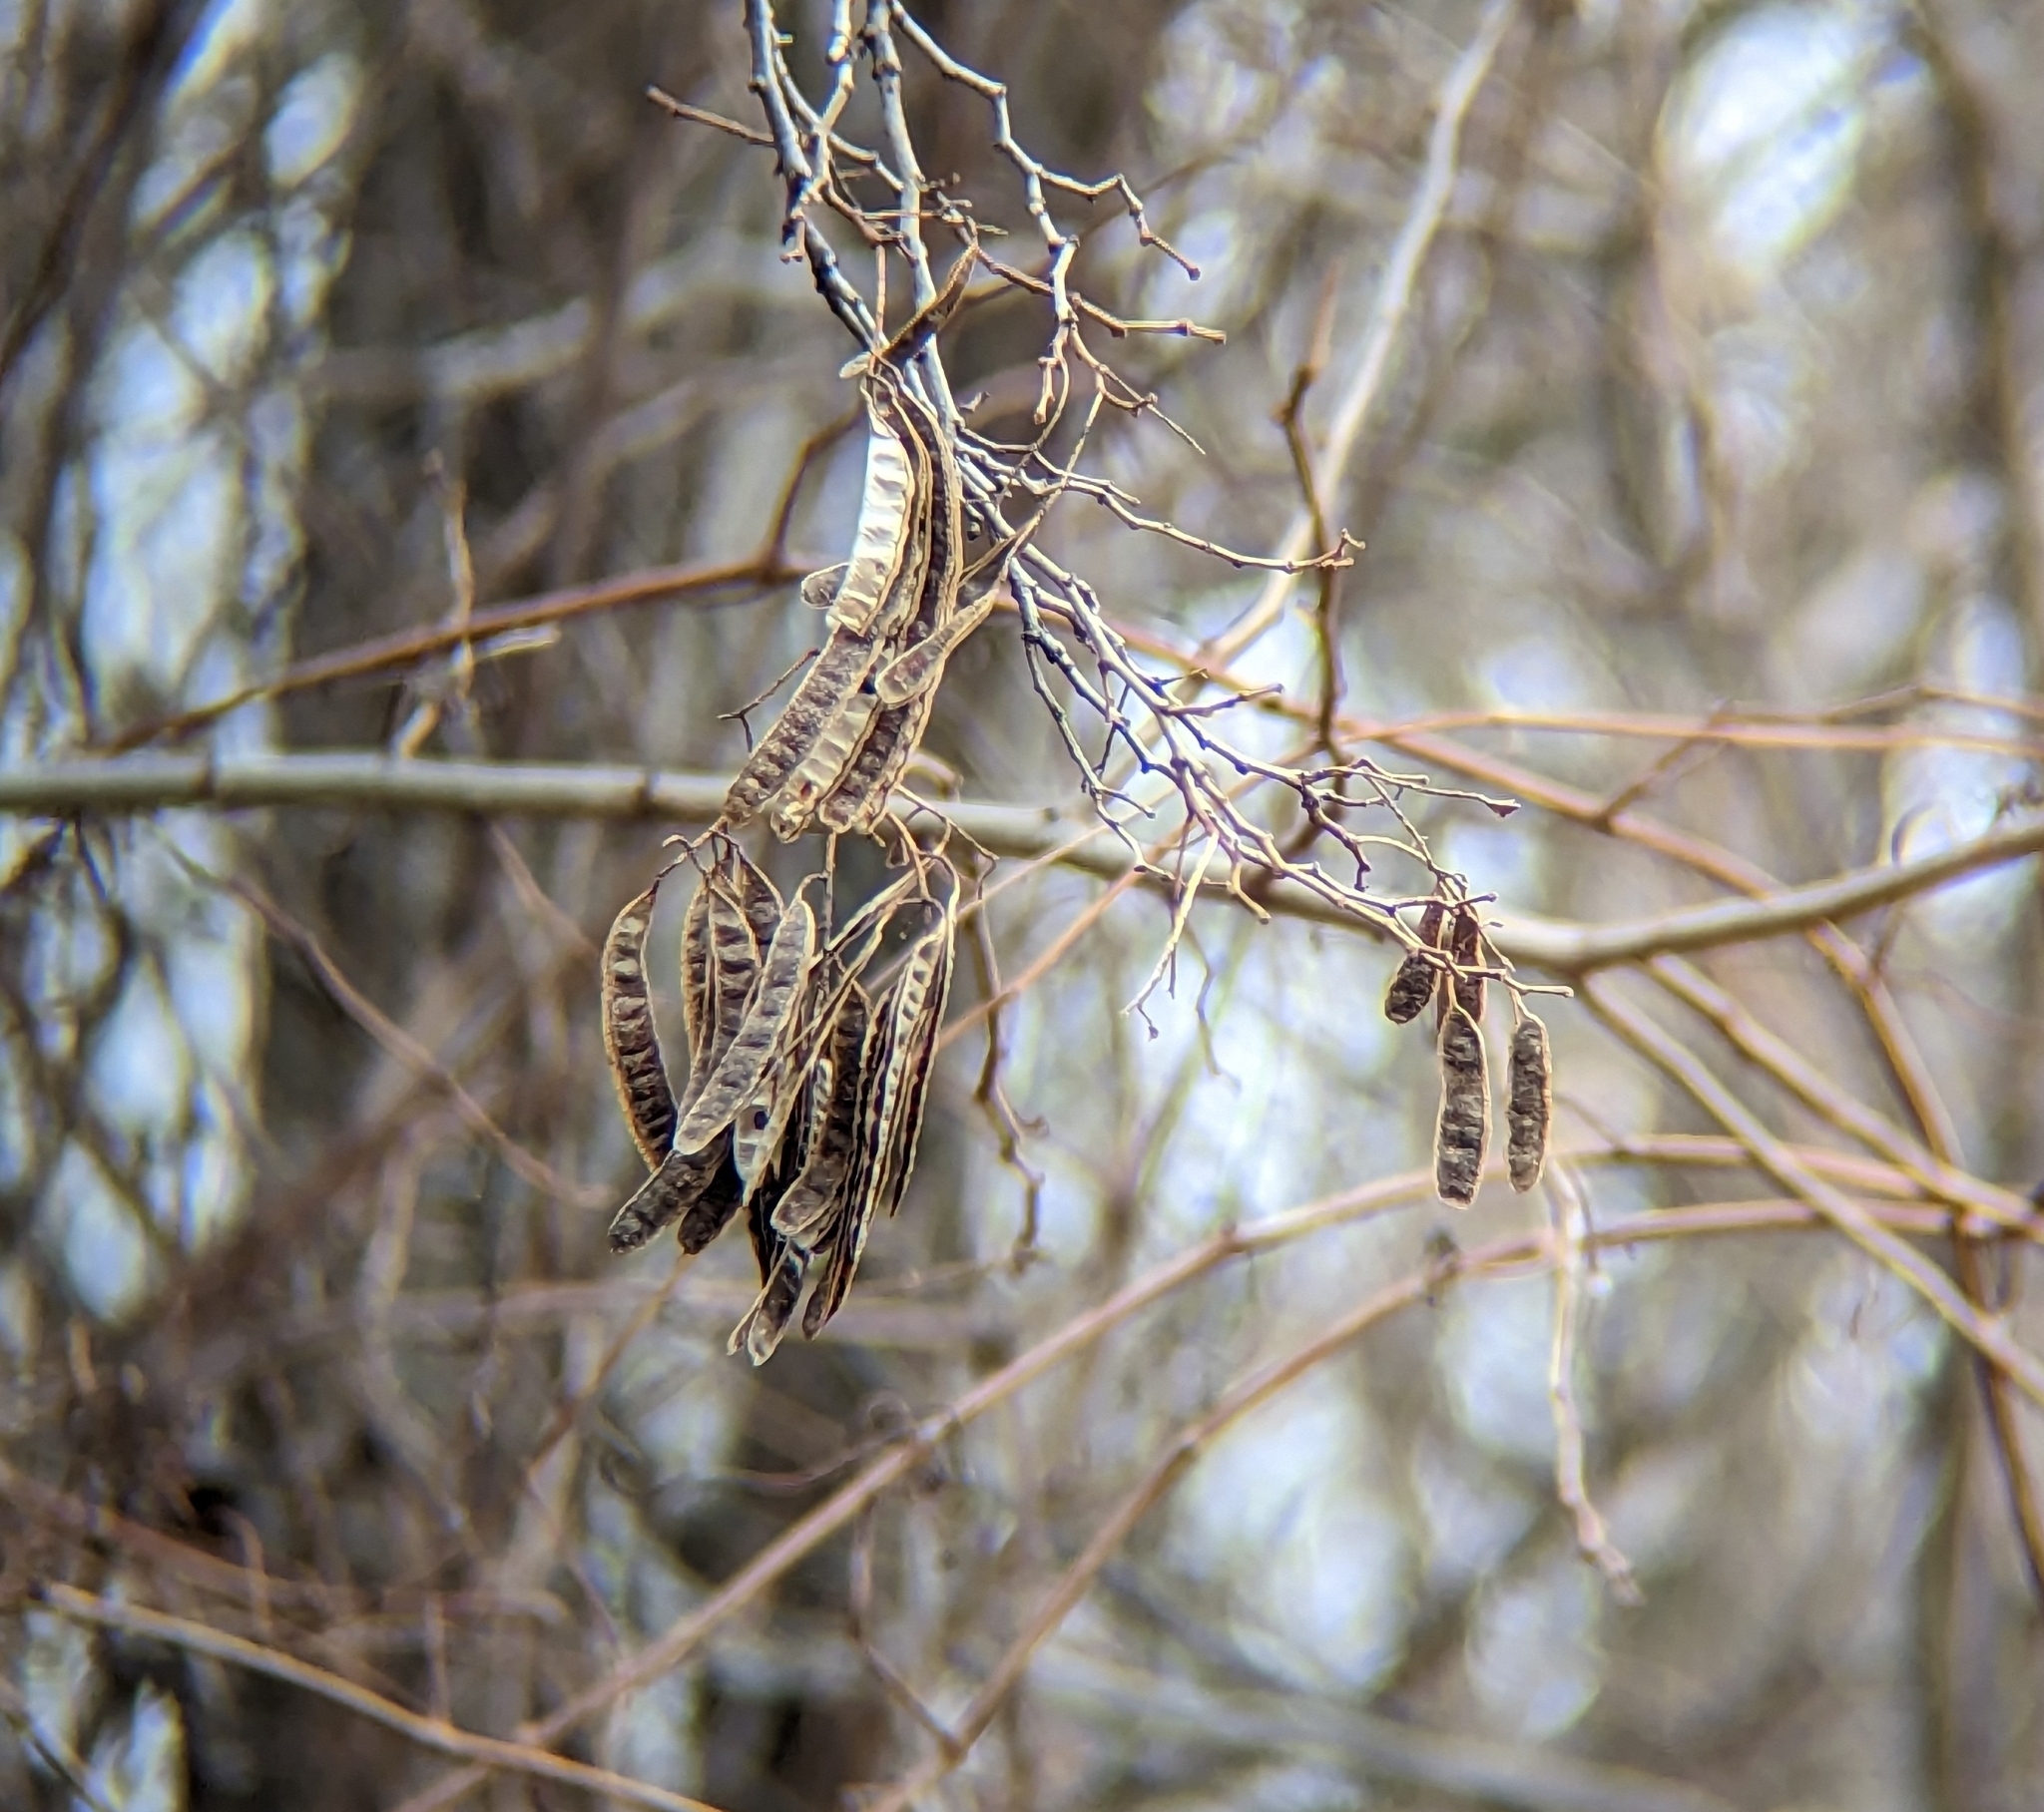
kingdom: Plantae
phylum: Tracheophyta
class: Magnoliopsida
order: Fabales
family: Fabaceae
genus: Robinia
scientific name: Robinia pseudoacacia
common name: Black locust
